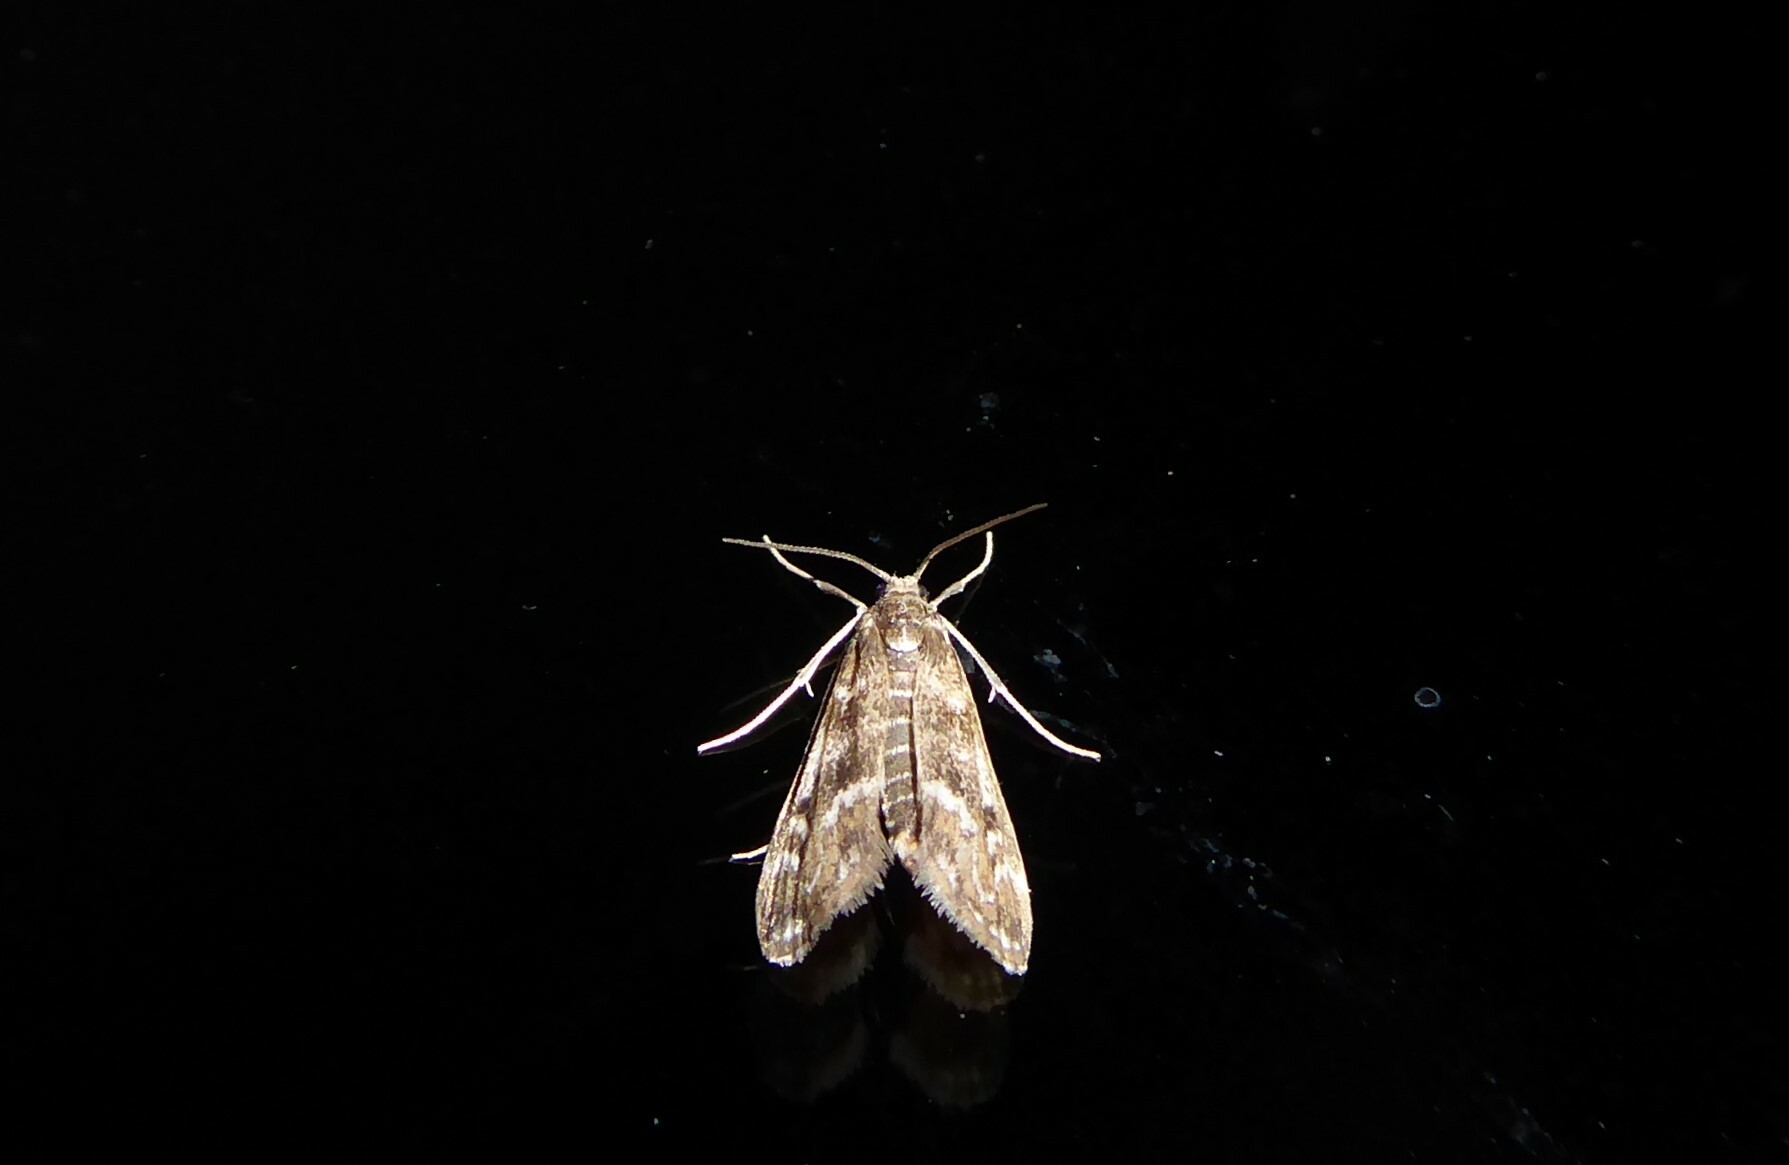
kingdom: Animalia
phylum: Arthropoda
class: Insecta
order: Lepidoptera
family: Crambidae
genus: Hygraula
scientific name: Hygraula nitens
